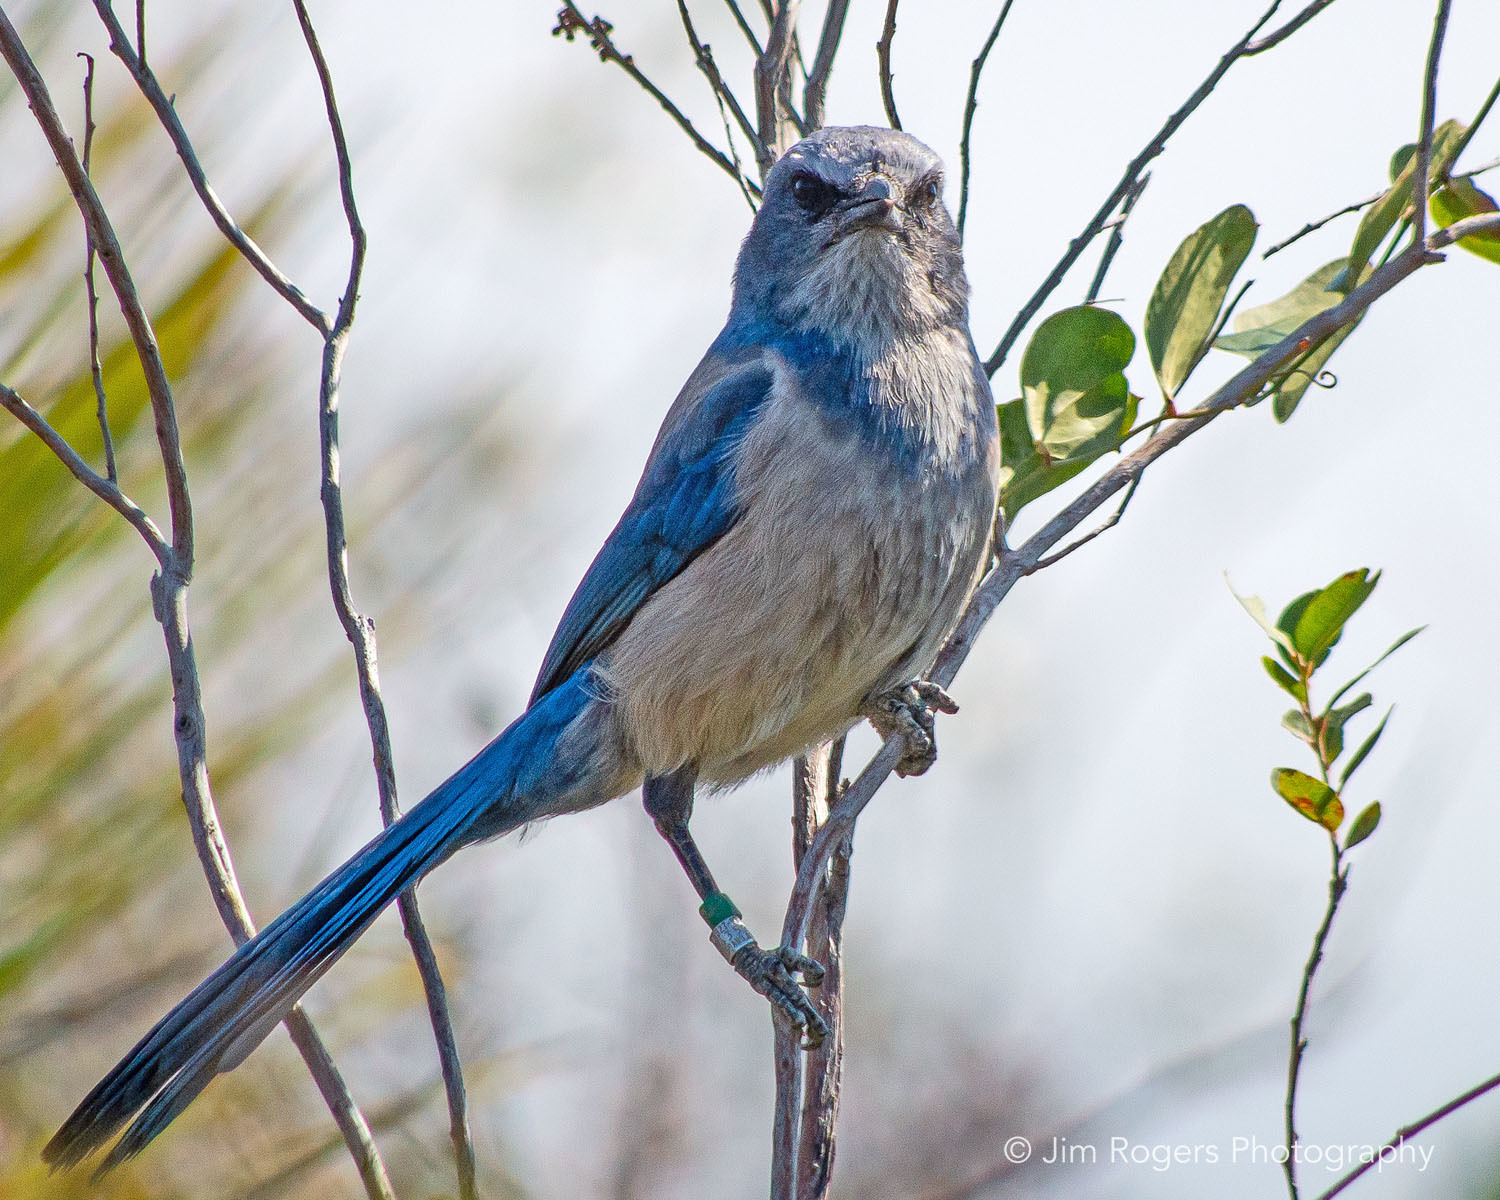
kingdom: Animalia
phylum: Chordata
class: Aves
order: Passeriformes
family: Corvidae
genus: Aphelocoma
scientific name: Aphelocoma coerulescens
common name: Florida scrub jay
